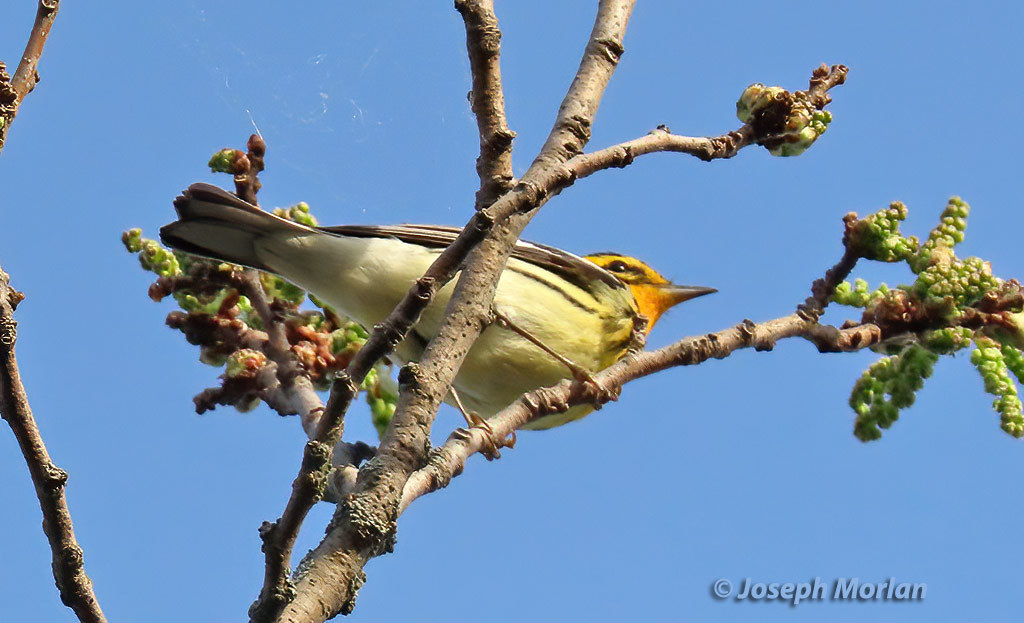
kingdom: Animalia
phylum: Chordata
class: Aves
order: Passeriformes
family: Parulidae
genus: Setophaga
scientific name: Setophaga fusca
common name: Blackburnian warbler
